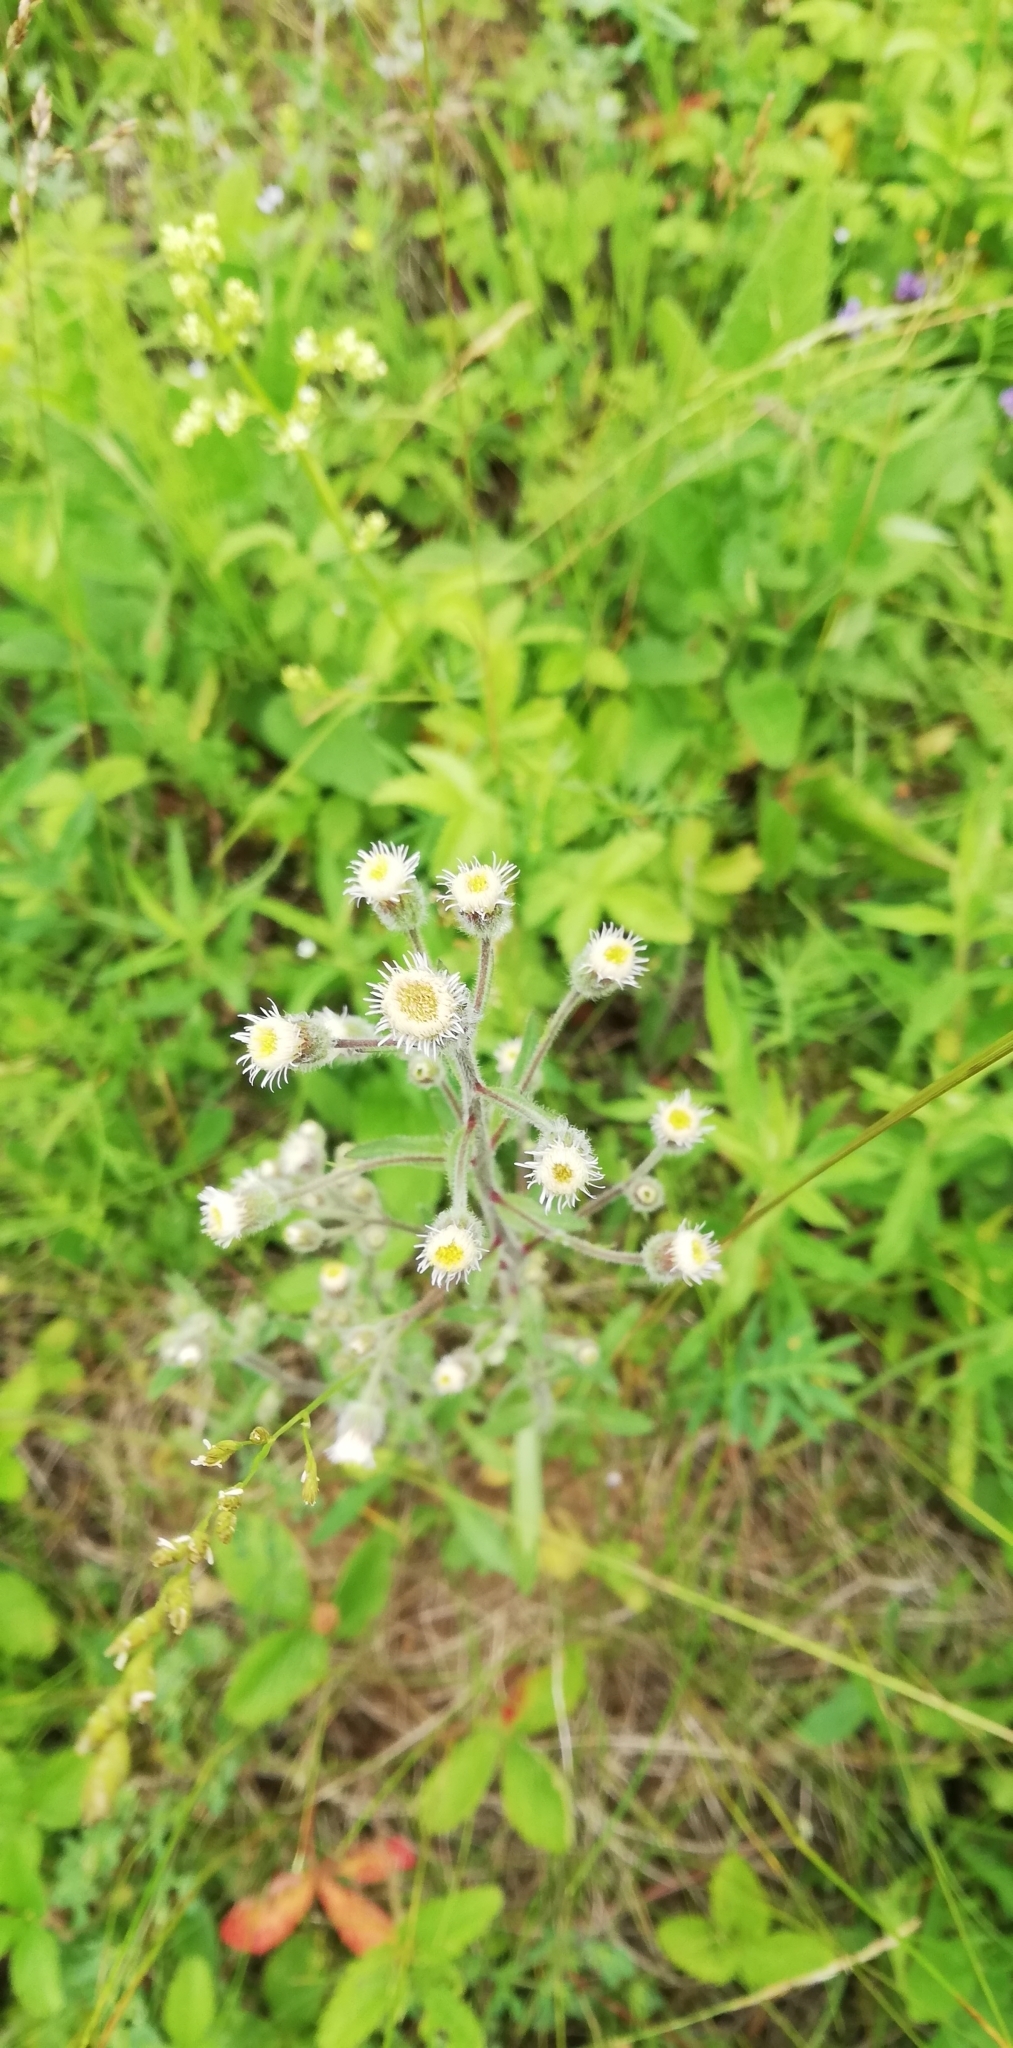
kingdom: Plantae
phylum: Tracheophyta
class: Magnoliopsida
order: Asterales
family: Asteraceae
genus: Erigeron
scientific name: Erigeron acris
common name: Blue fleabane
